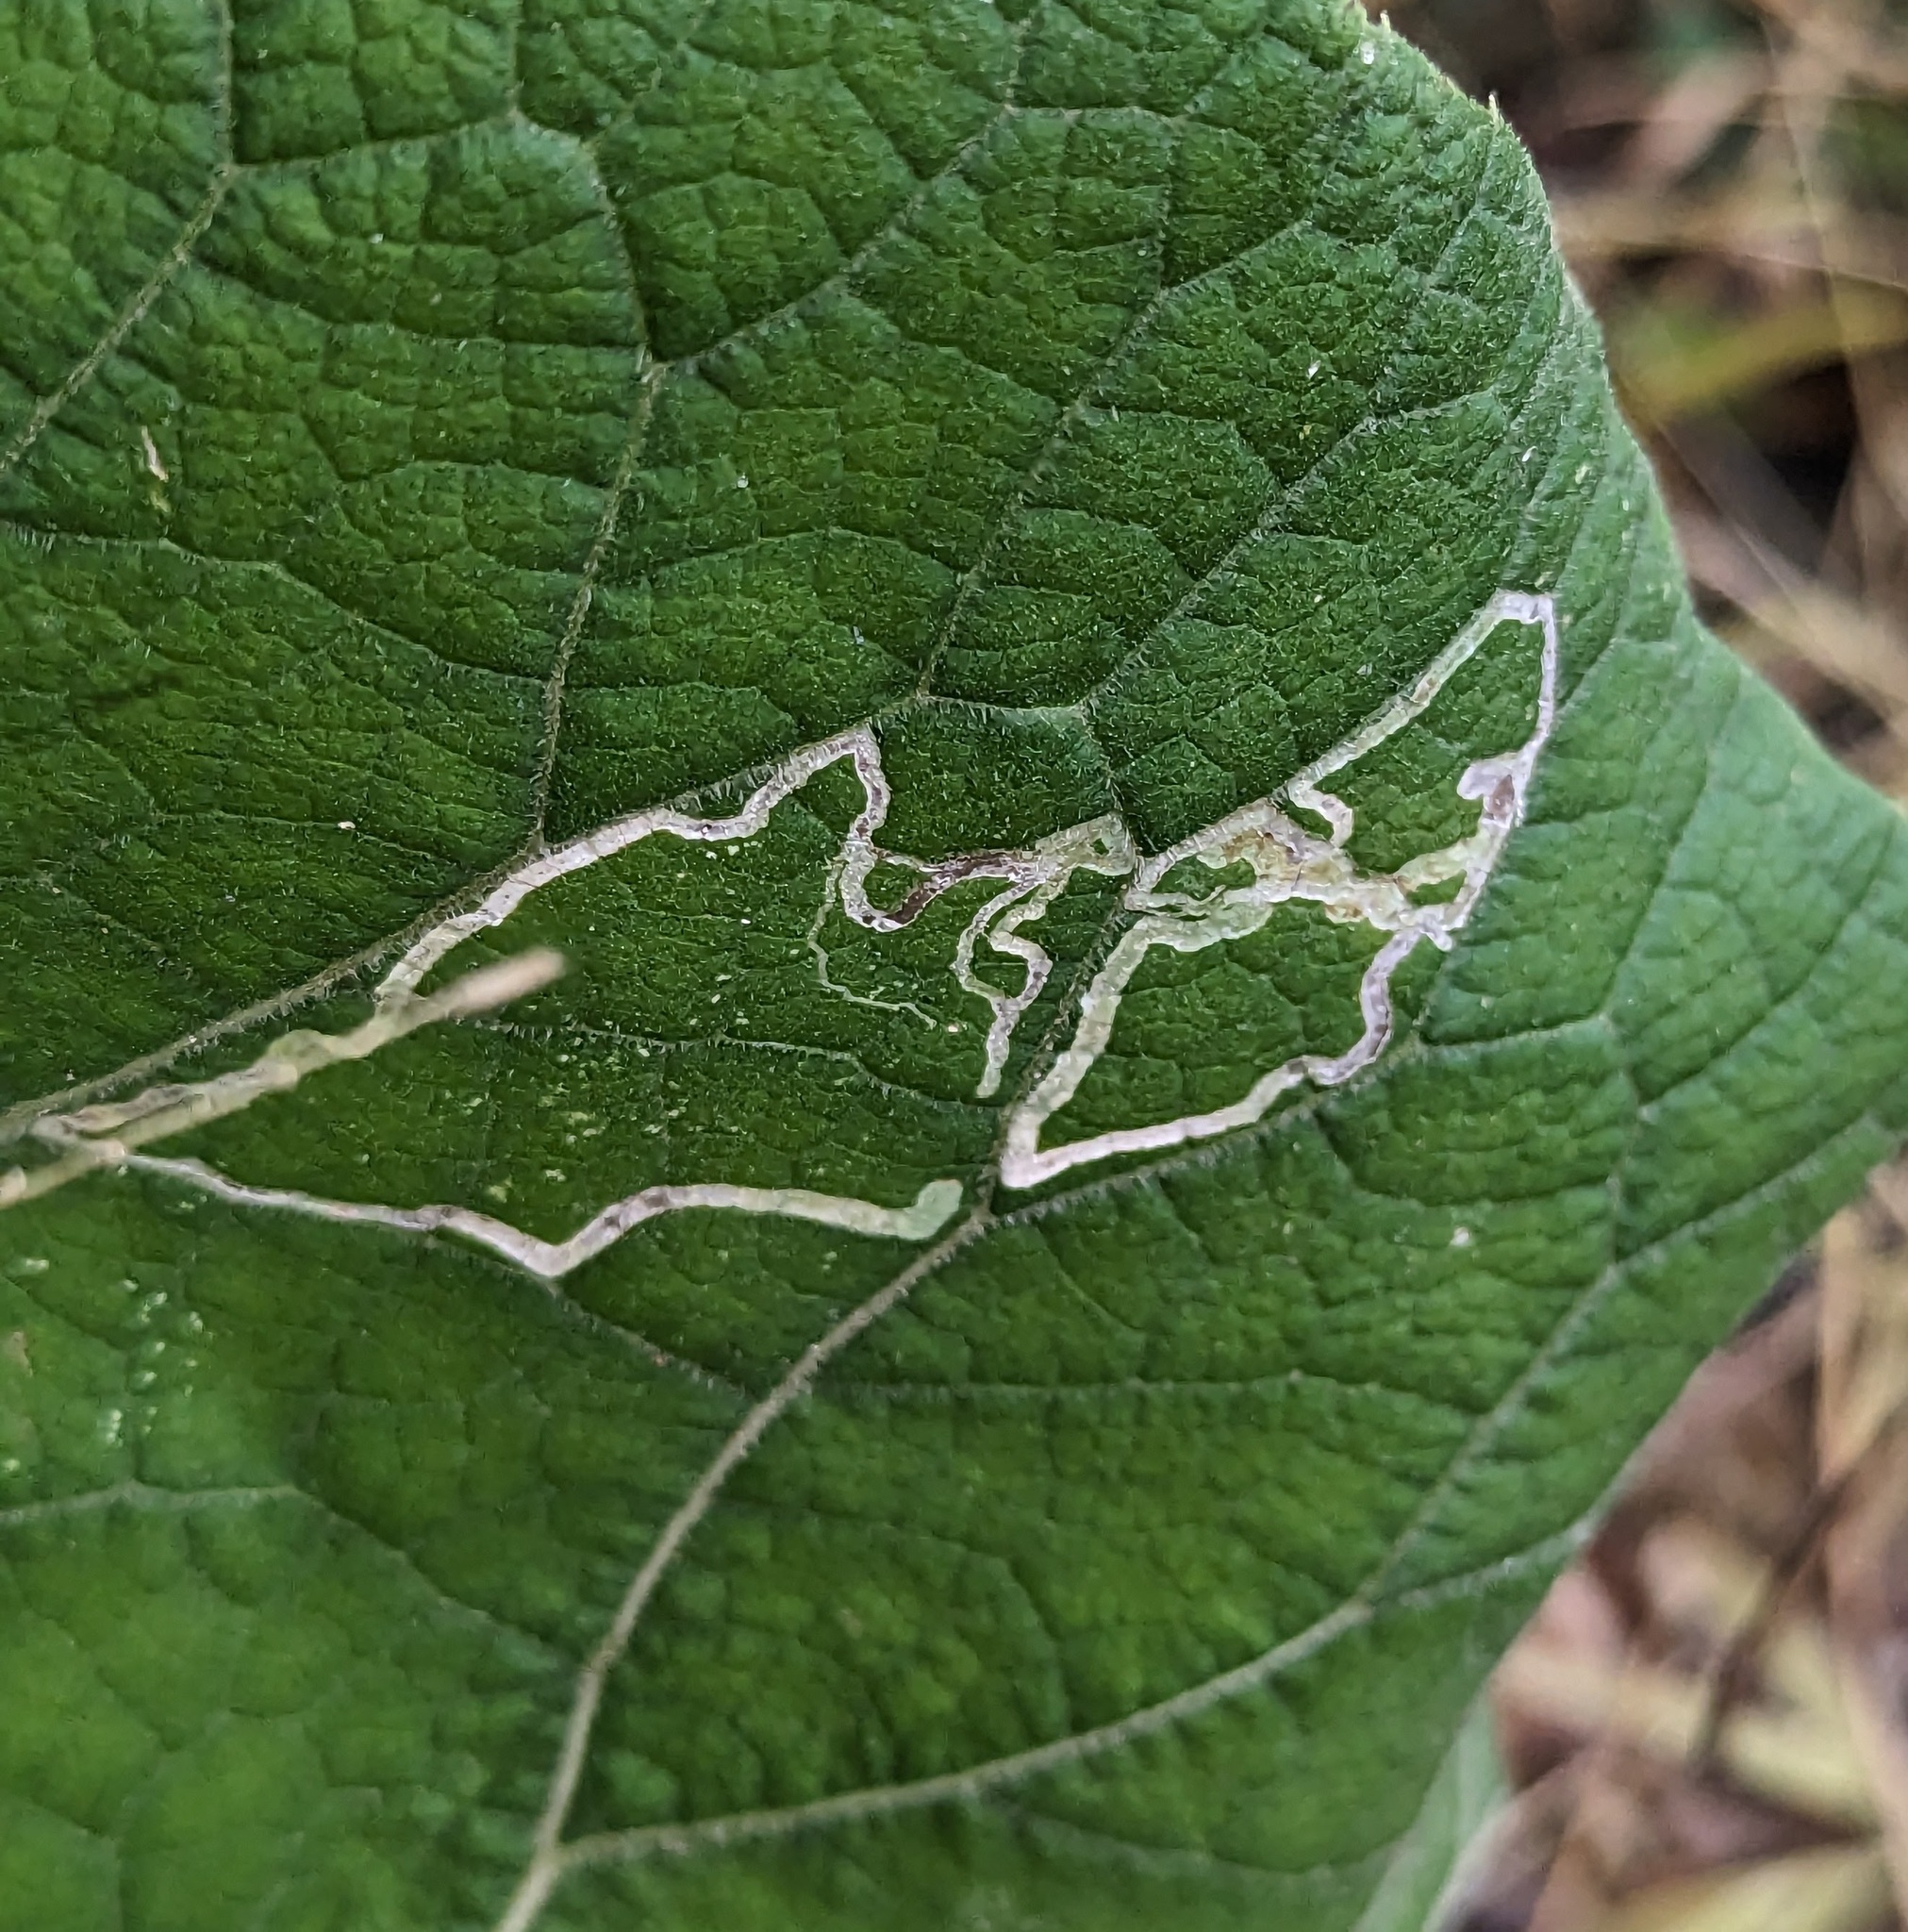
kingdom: Animalia
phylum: Arthropoda
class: Insecta
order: Diptera
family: Agromyzidae
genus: Liriomyza
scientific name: Liriomyza arctii
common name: Burdock leafminer
